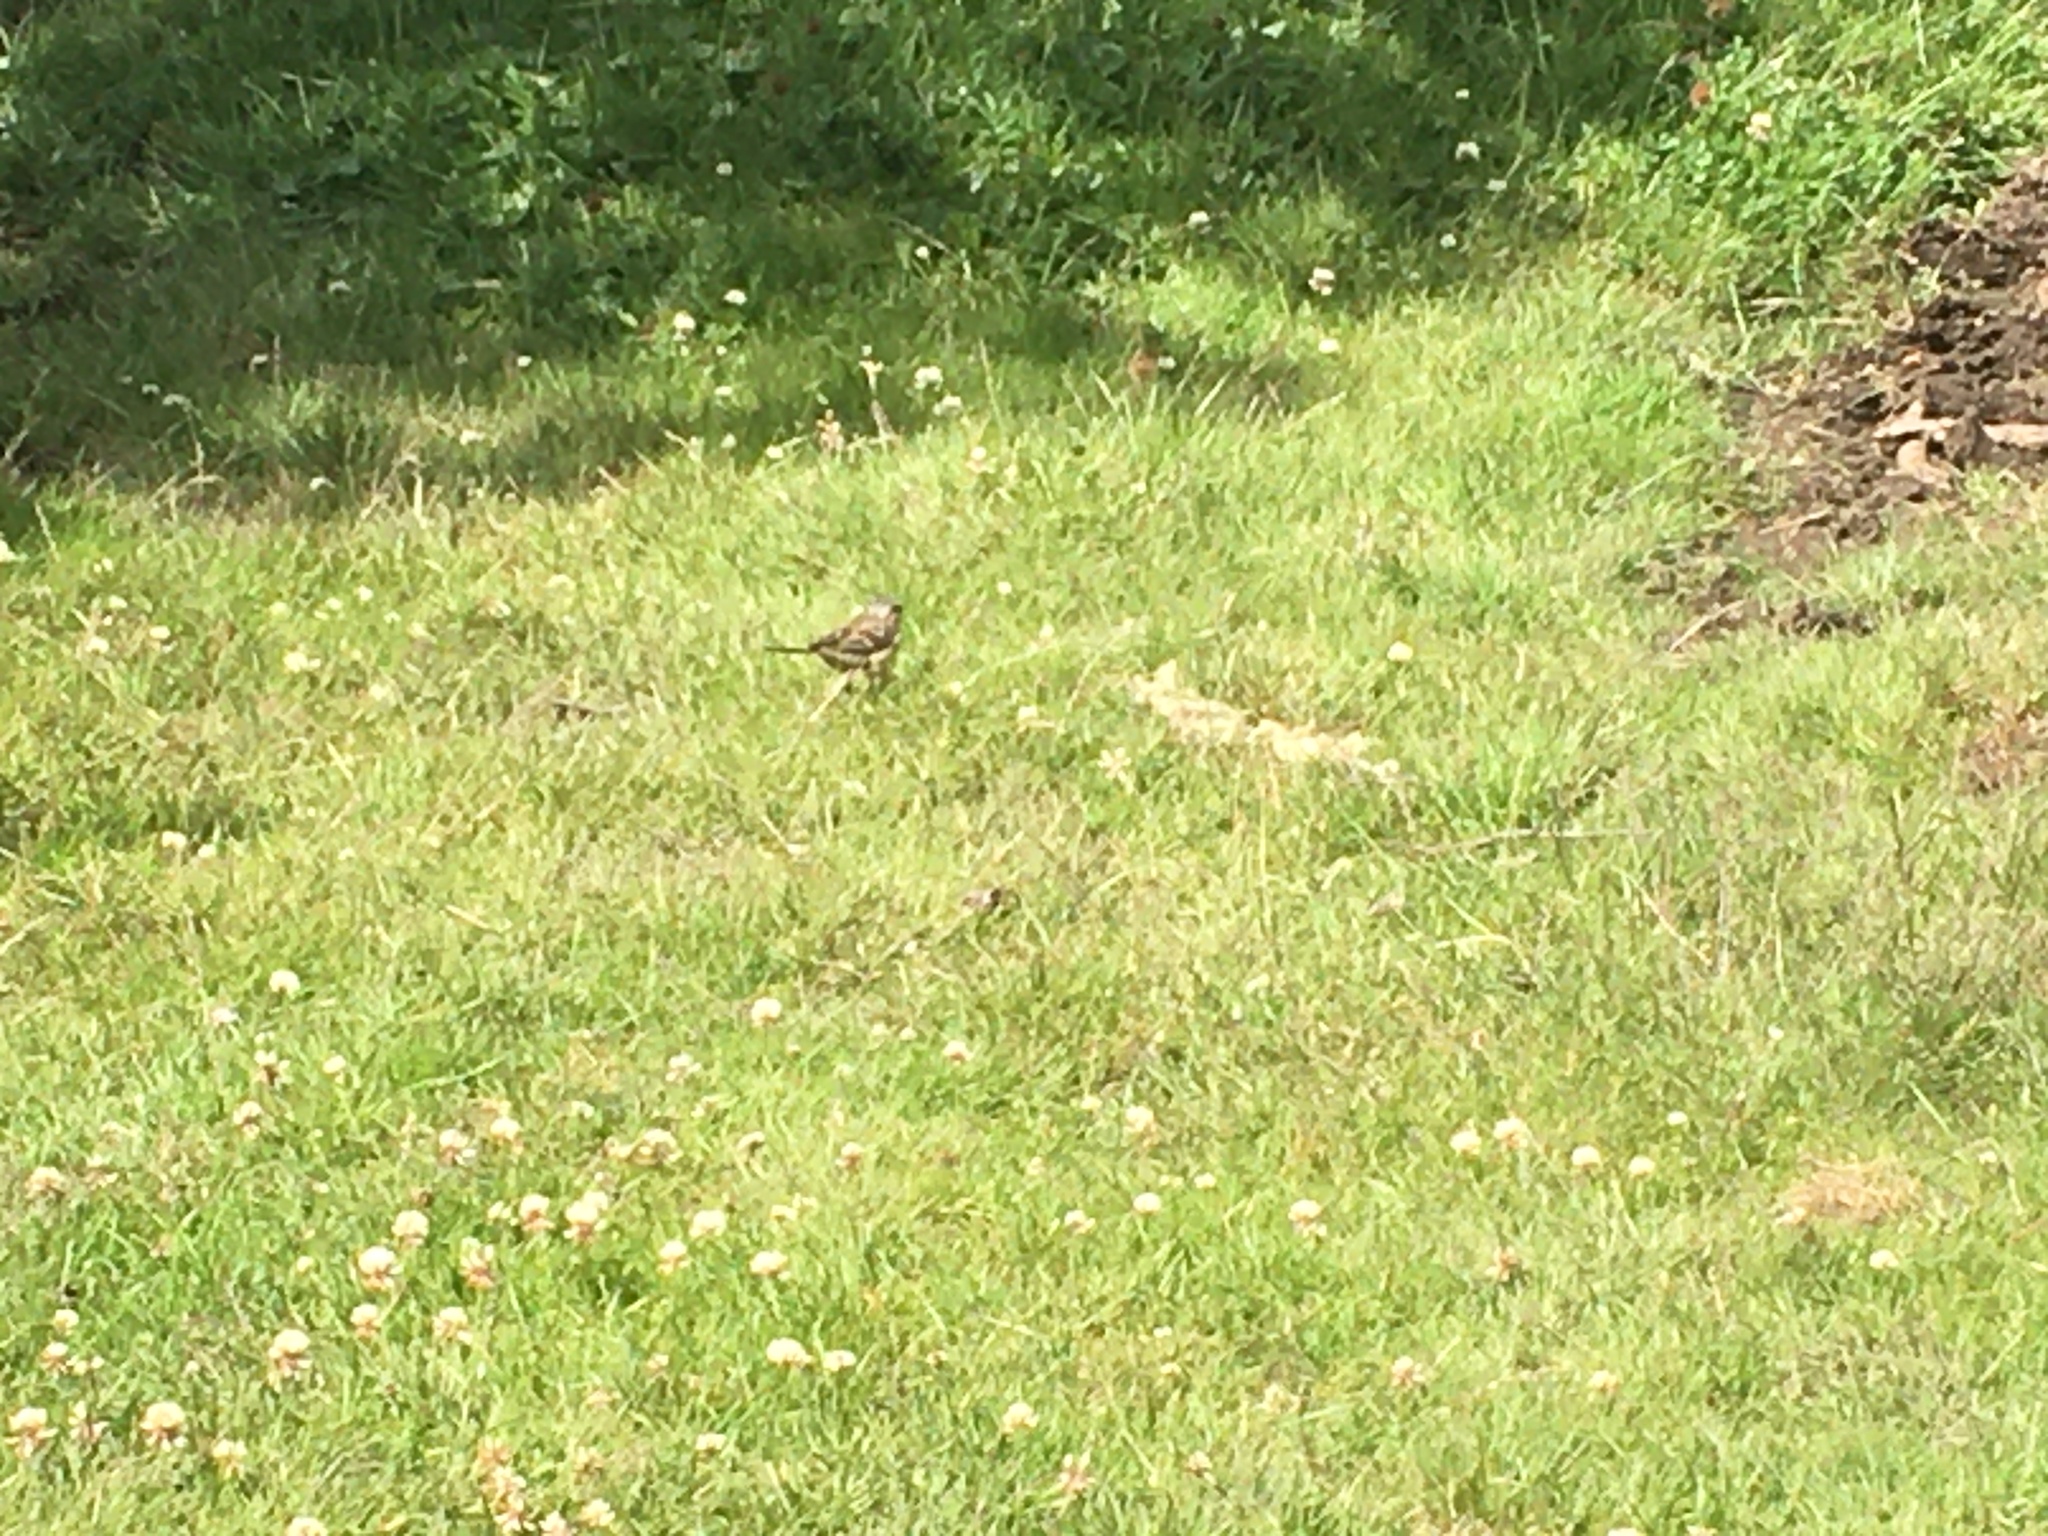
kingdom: Animalia
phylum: Chordata
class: Aves
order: Passeriformes
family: Passerellidae
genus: Zonotrichia
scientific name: Zonotrichia capensis
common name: Rufous-collared sparrow
